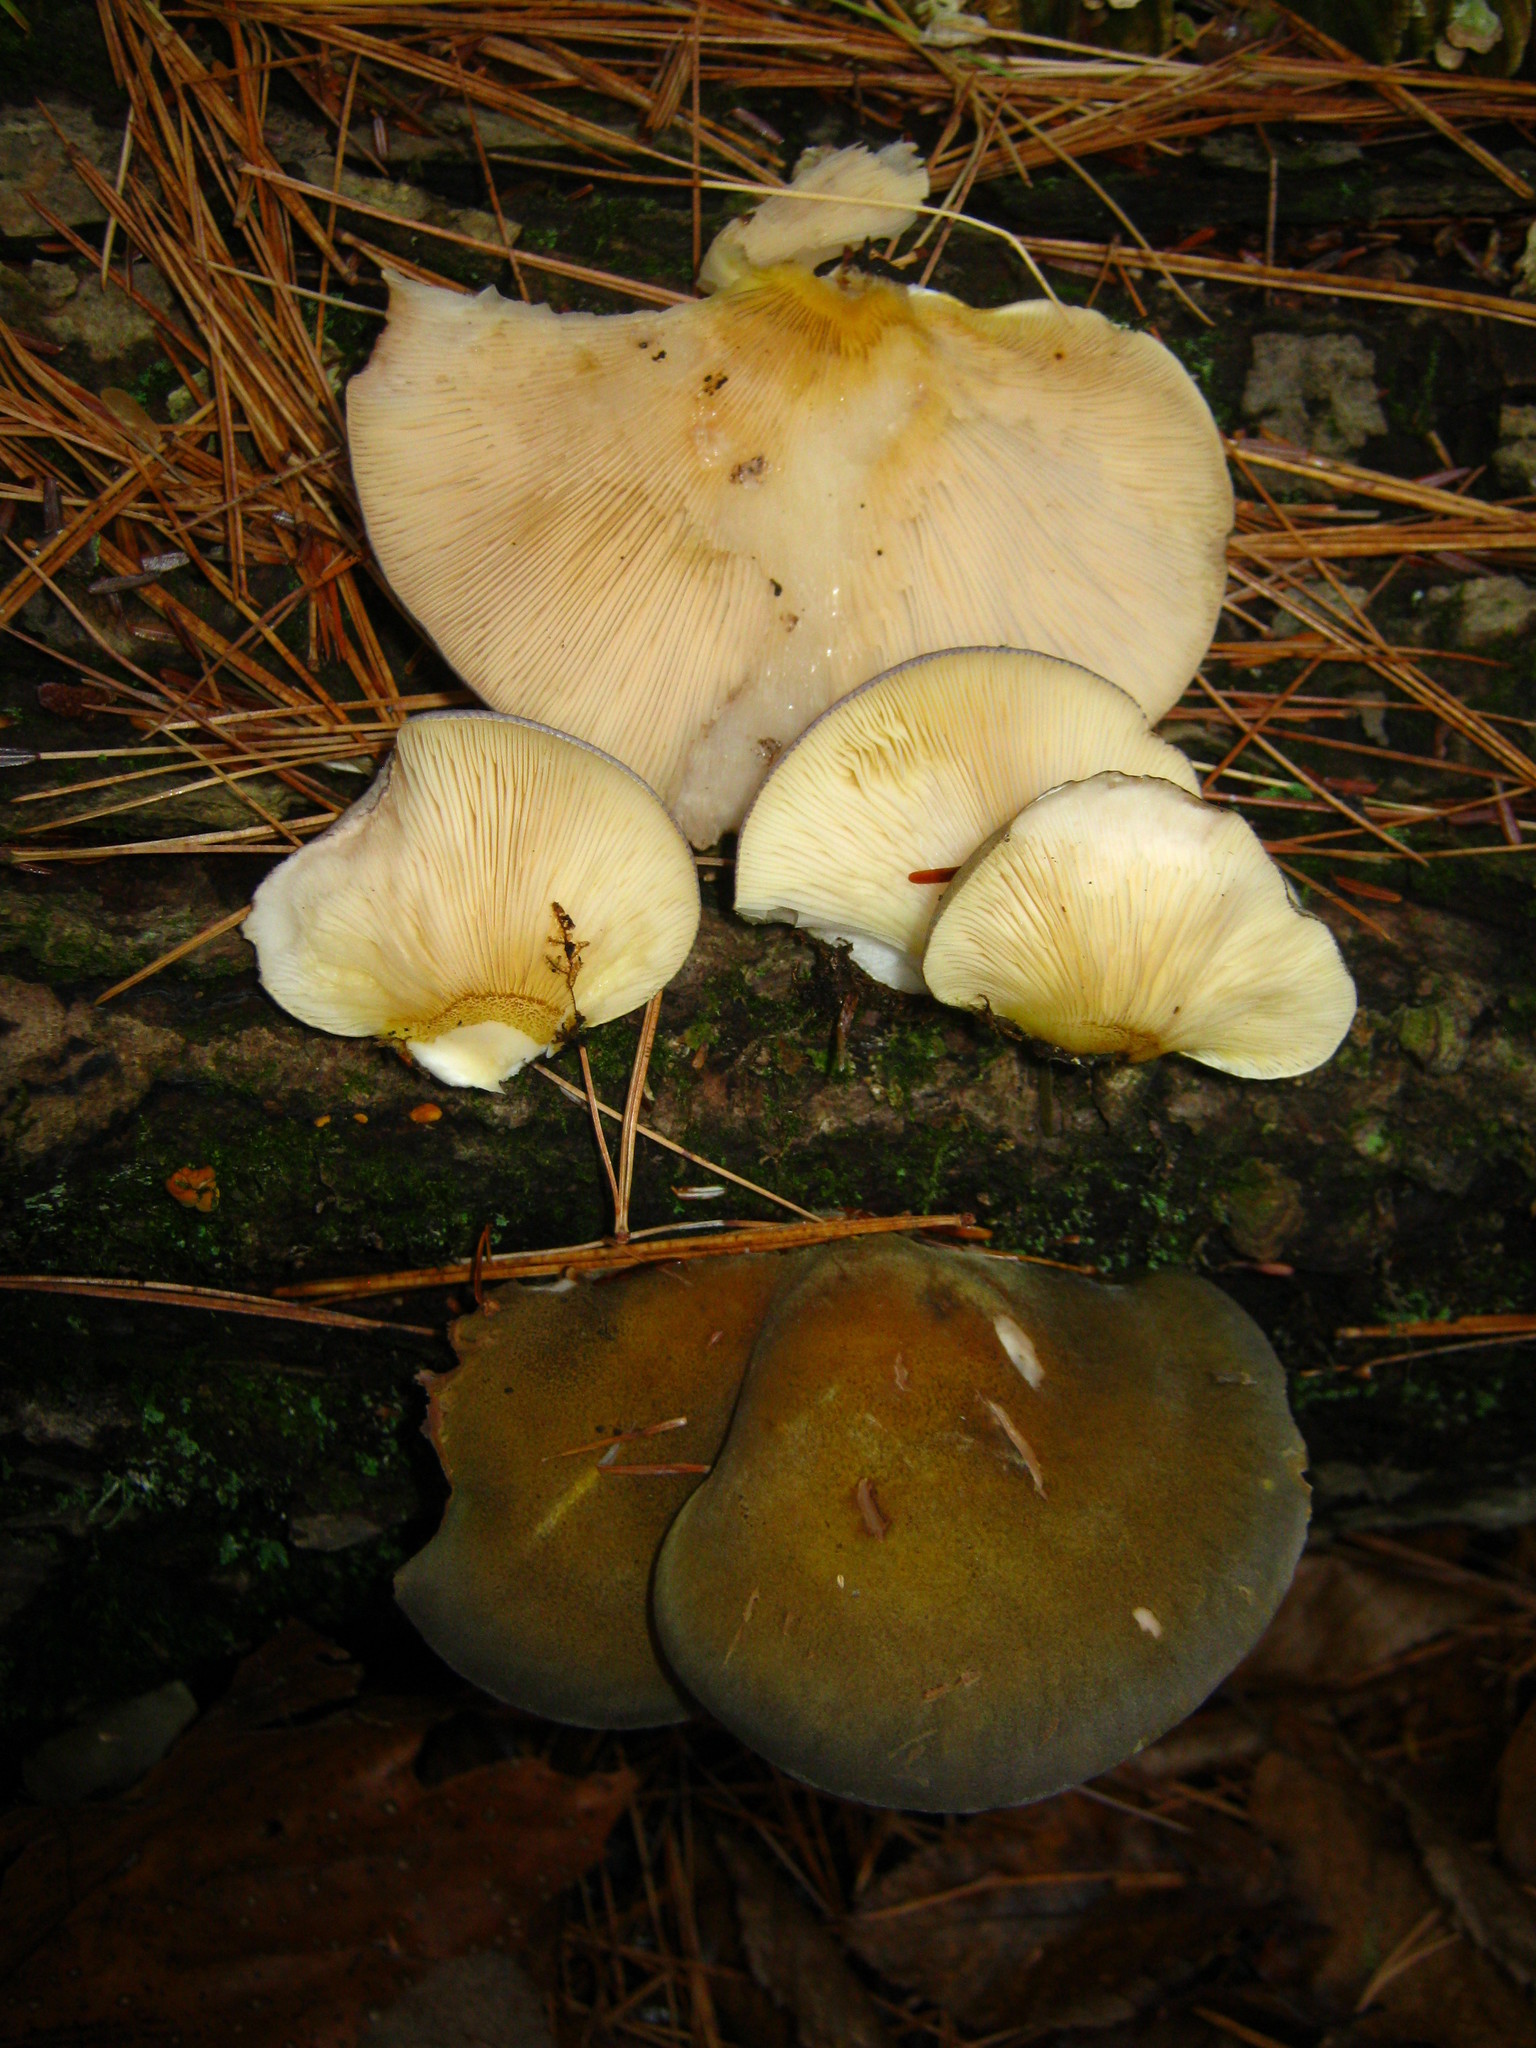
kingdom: Fungi
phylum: Basidiomycota
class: Agaricomycetes
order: Agaricales
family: Sarcomyxaceae
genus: Sarcomyxa
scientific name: Sarcomyxa serotina
